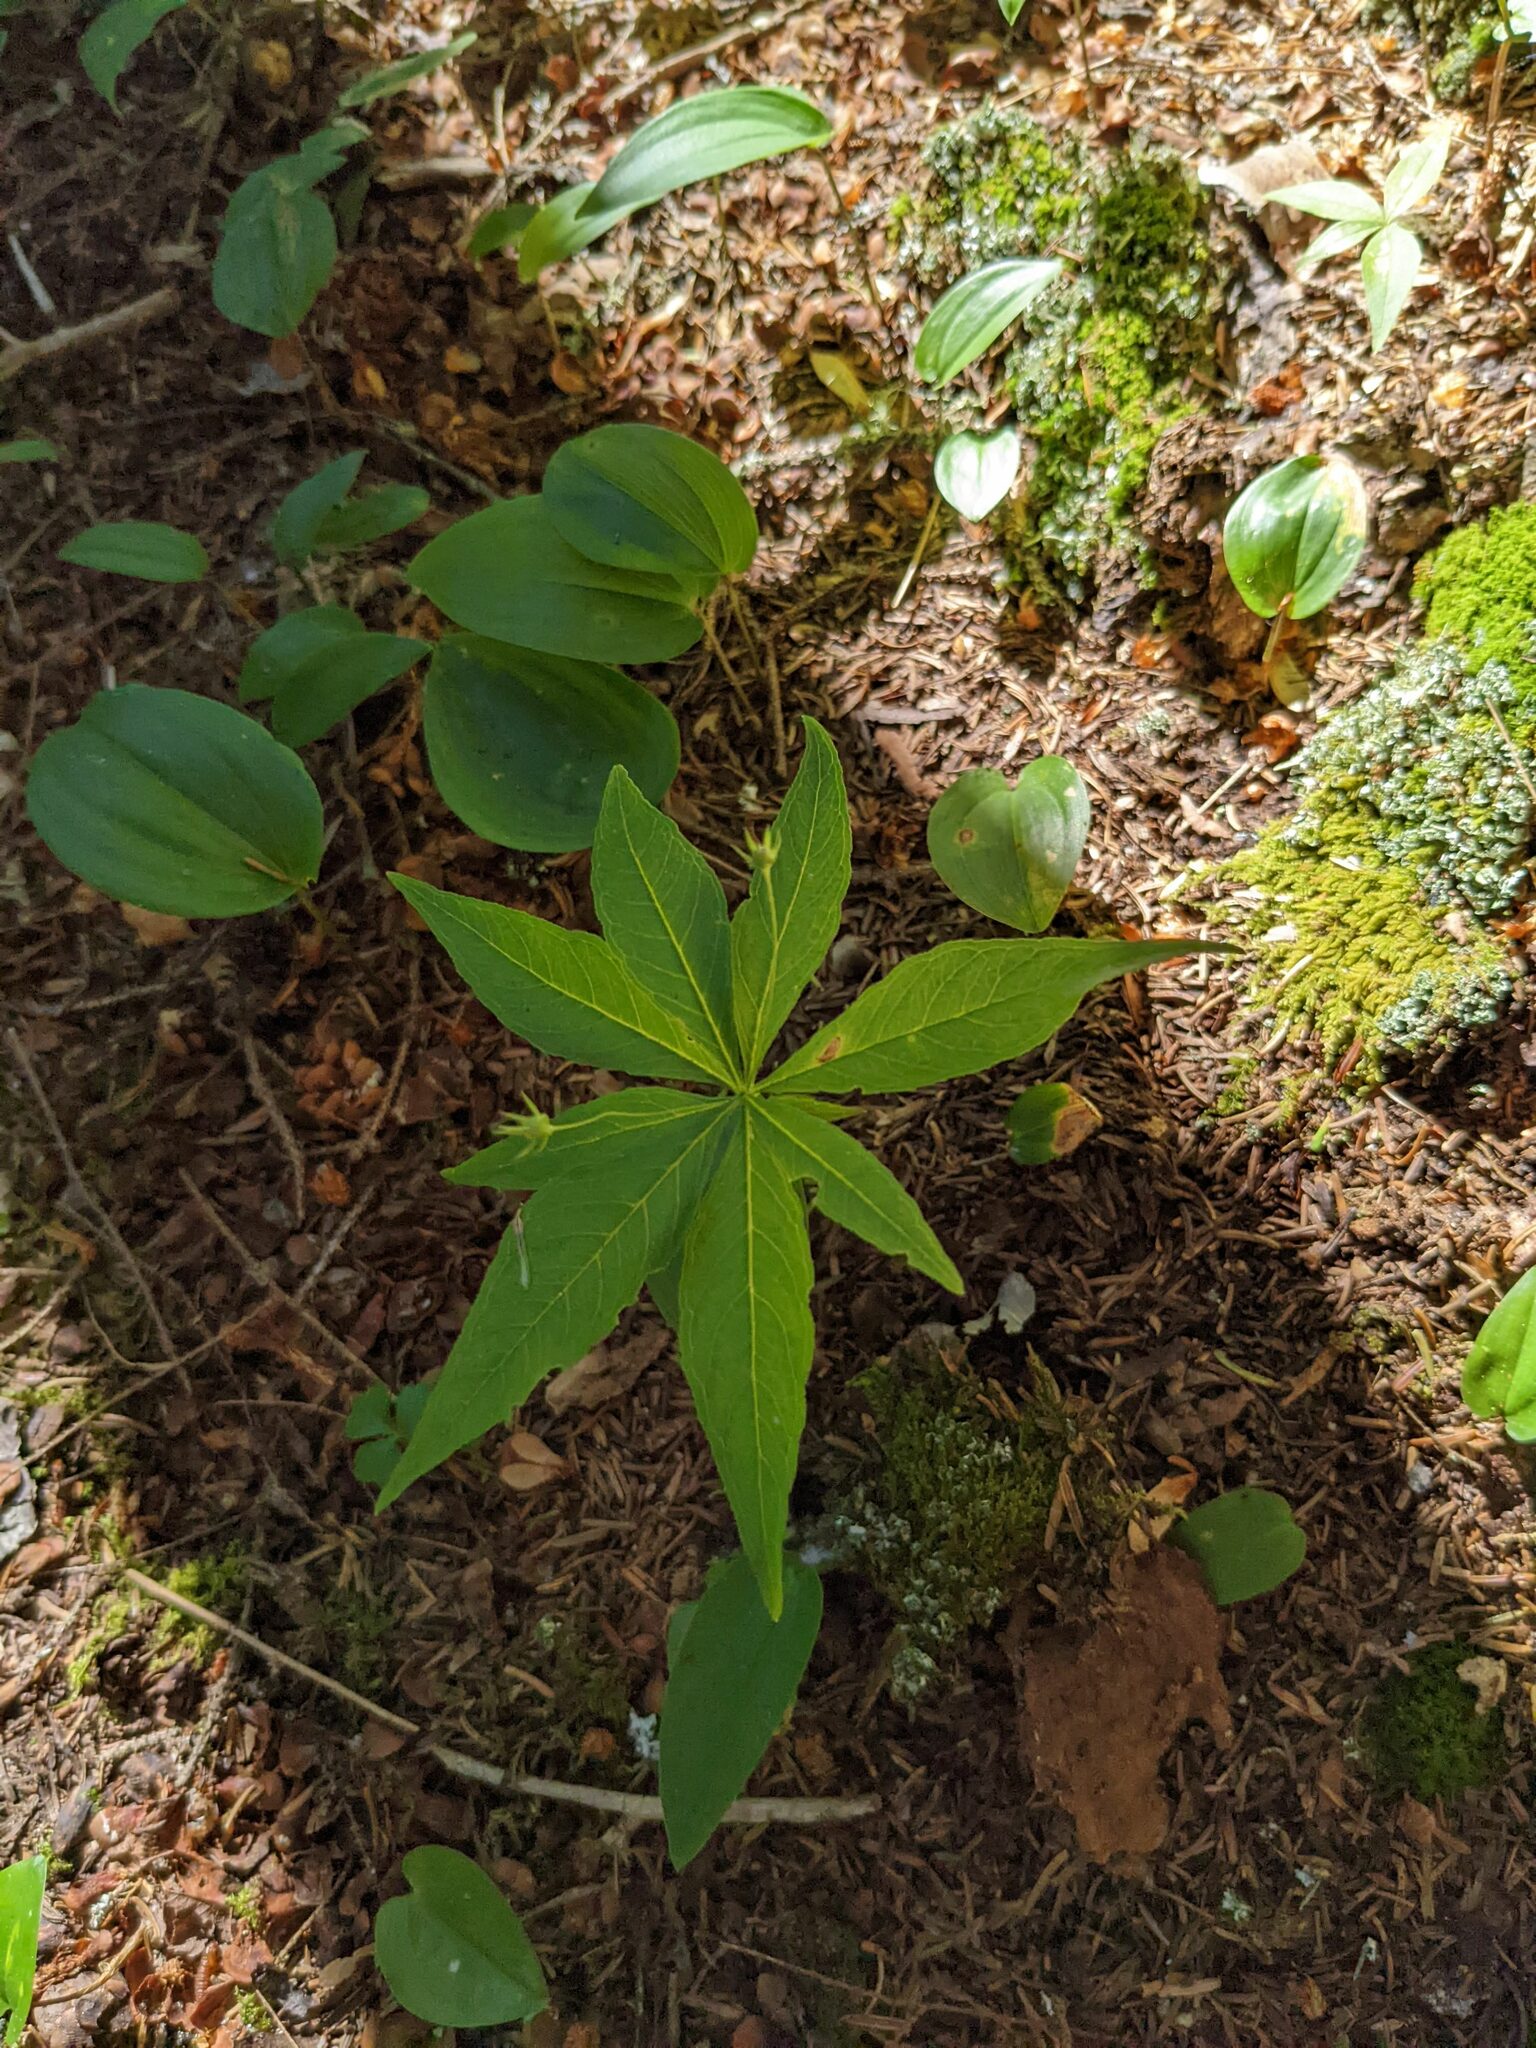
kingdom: Plantae
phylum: Tracheophyta
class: Liliopsida
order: Asparagales
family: Asparagaceae
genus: Maianthemum
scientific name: Maianthemum canadense
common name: False lily-of-the-valley
